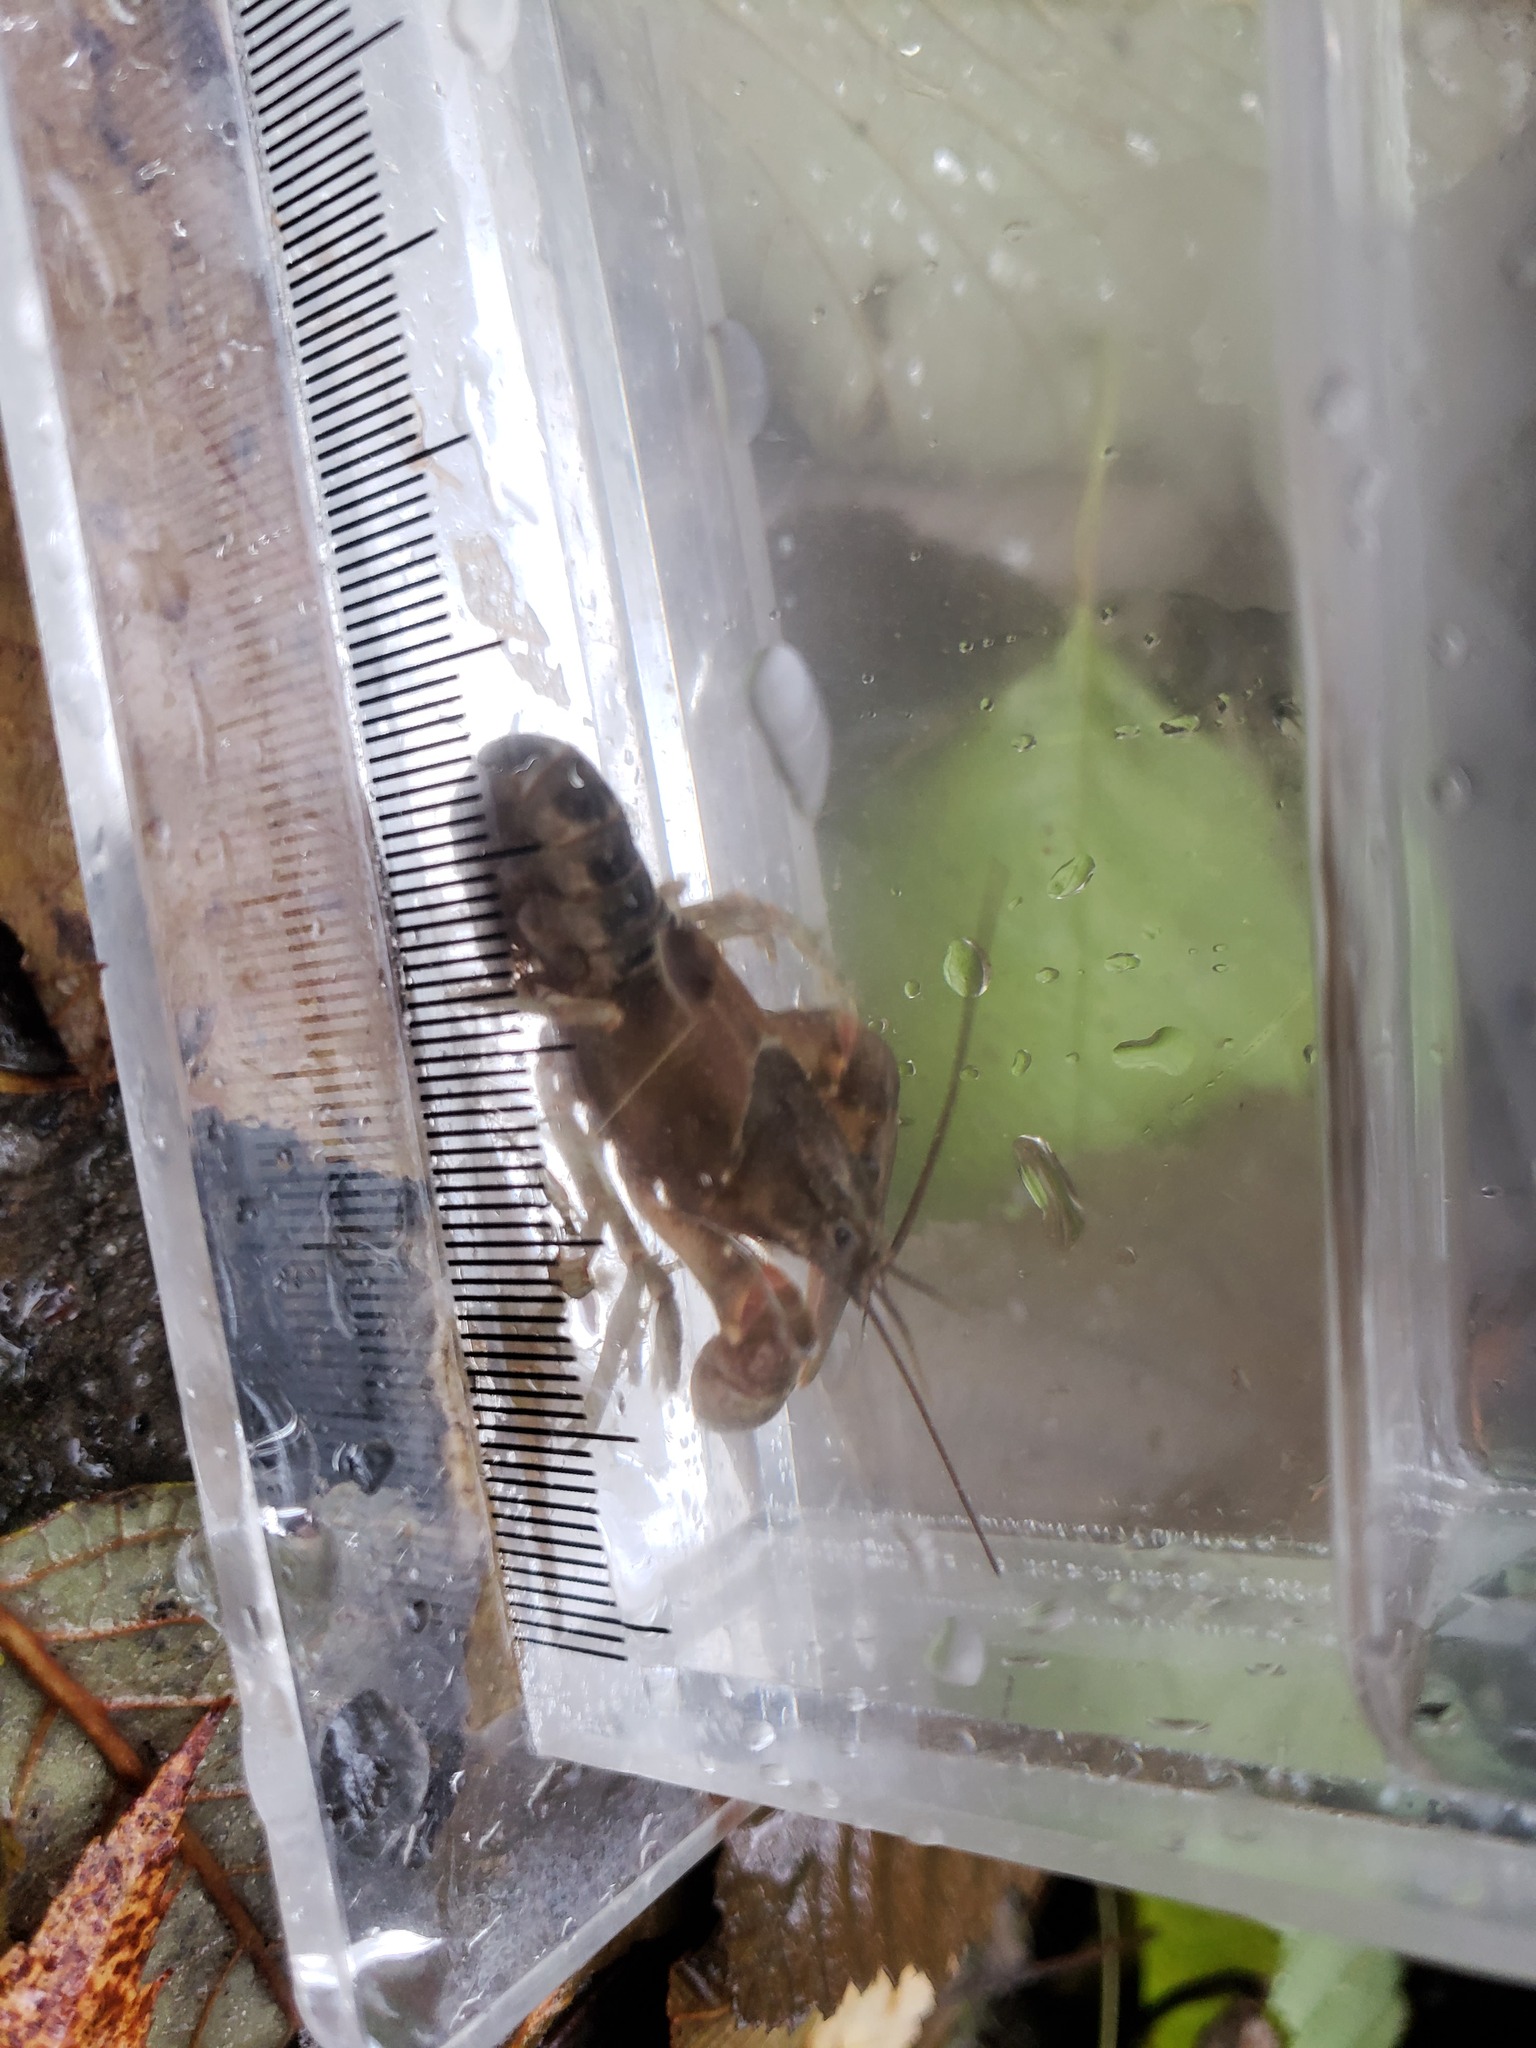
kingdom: Animalia
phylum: Arthropoda
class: Malacostraca
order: Decapoda
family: Cambaridae
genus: Faxonius
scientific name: Faxonius propinquus
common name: Northern clearwater crayfish
